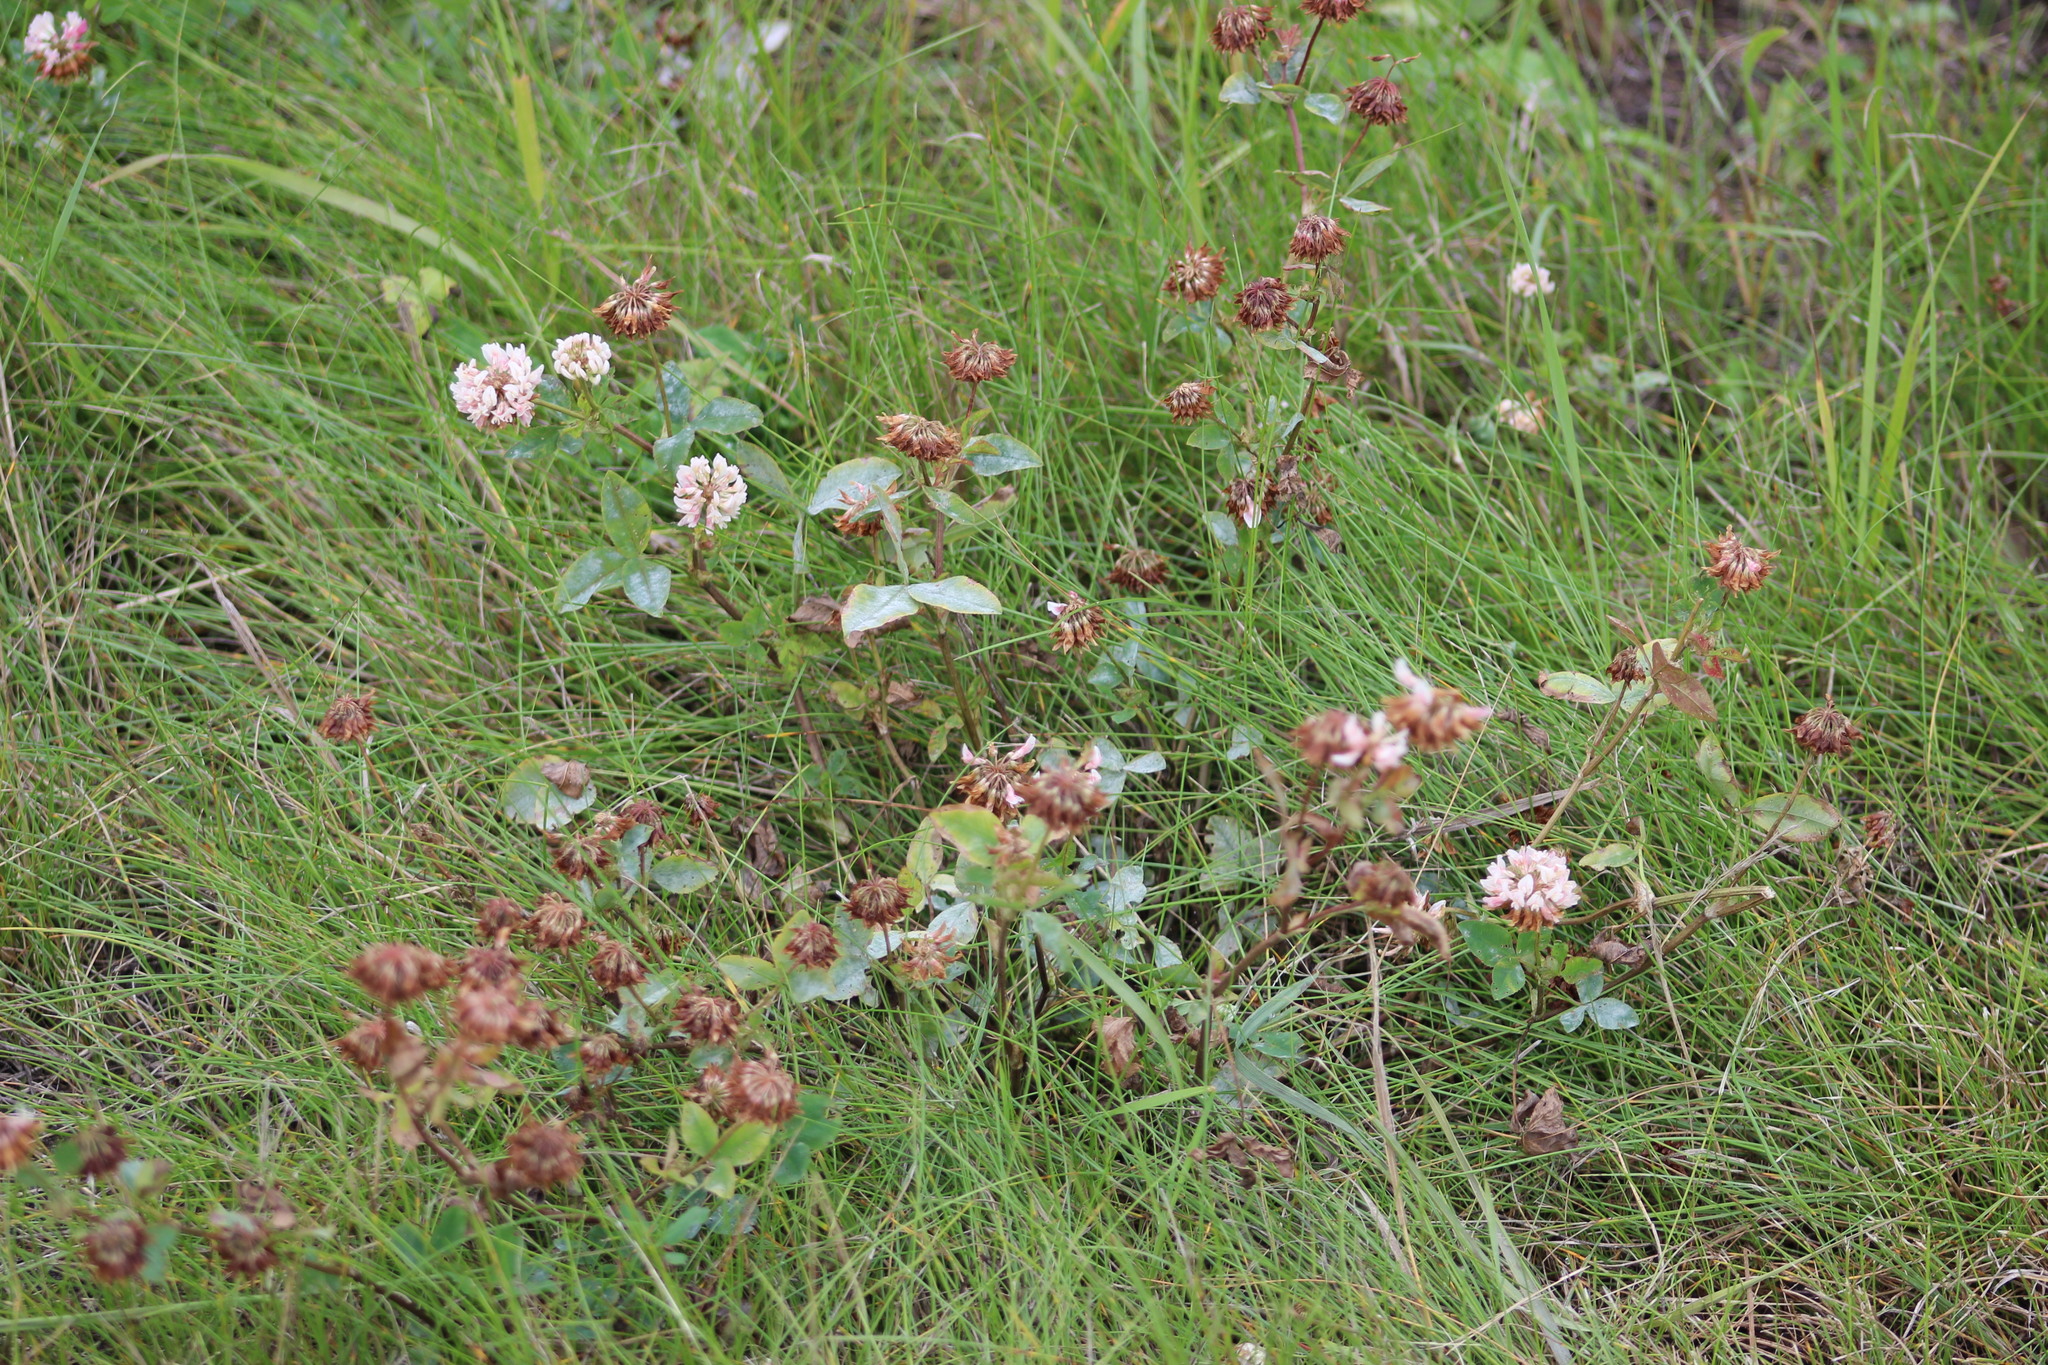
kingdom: Plantae
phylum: Tracheophyta
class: Magnoliopsida
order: Fabales
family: Fabaceae
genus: Trifolium
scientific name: Trifolium hybridum
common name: Alsike clover
